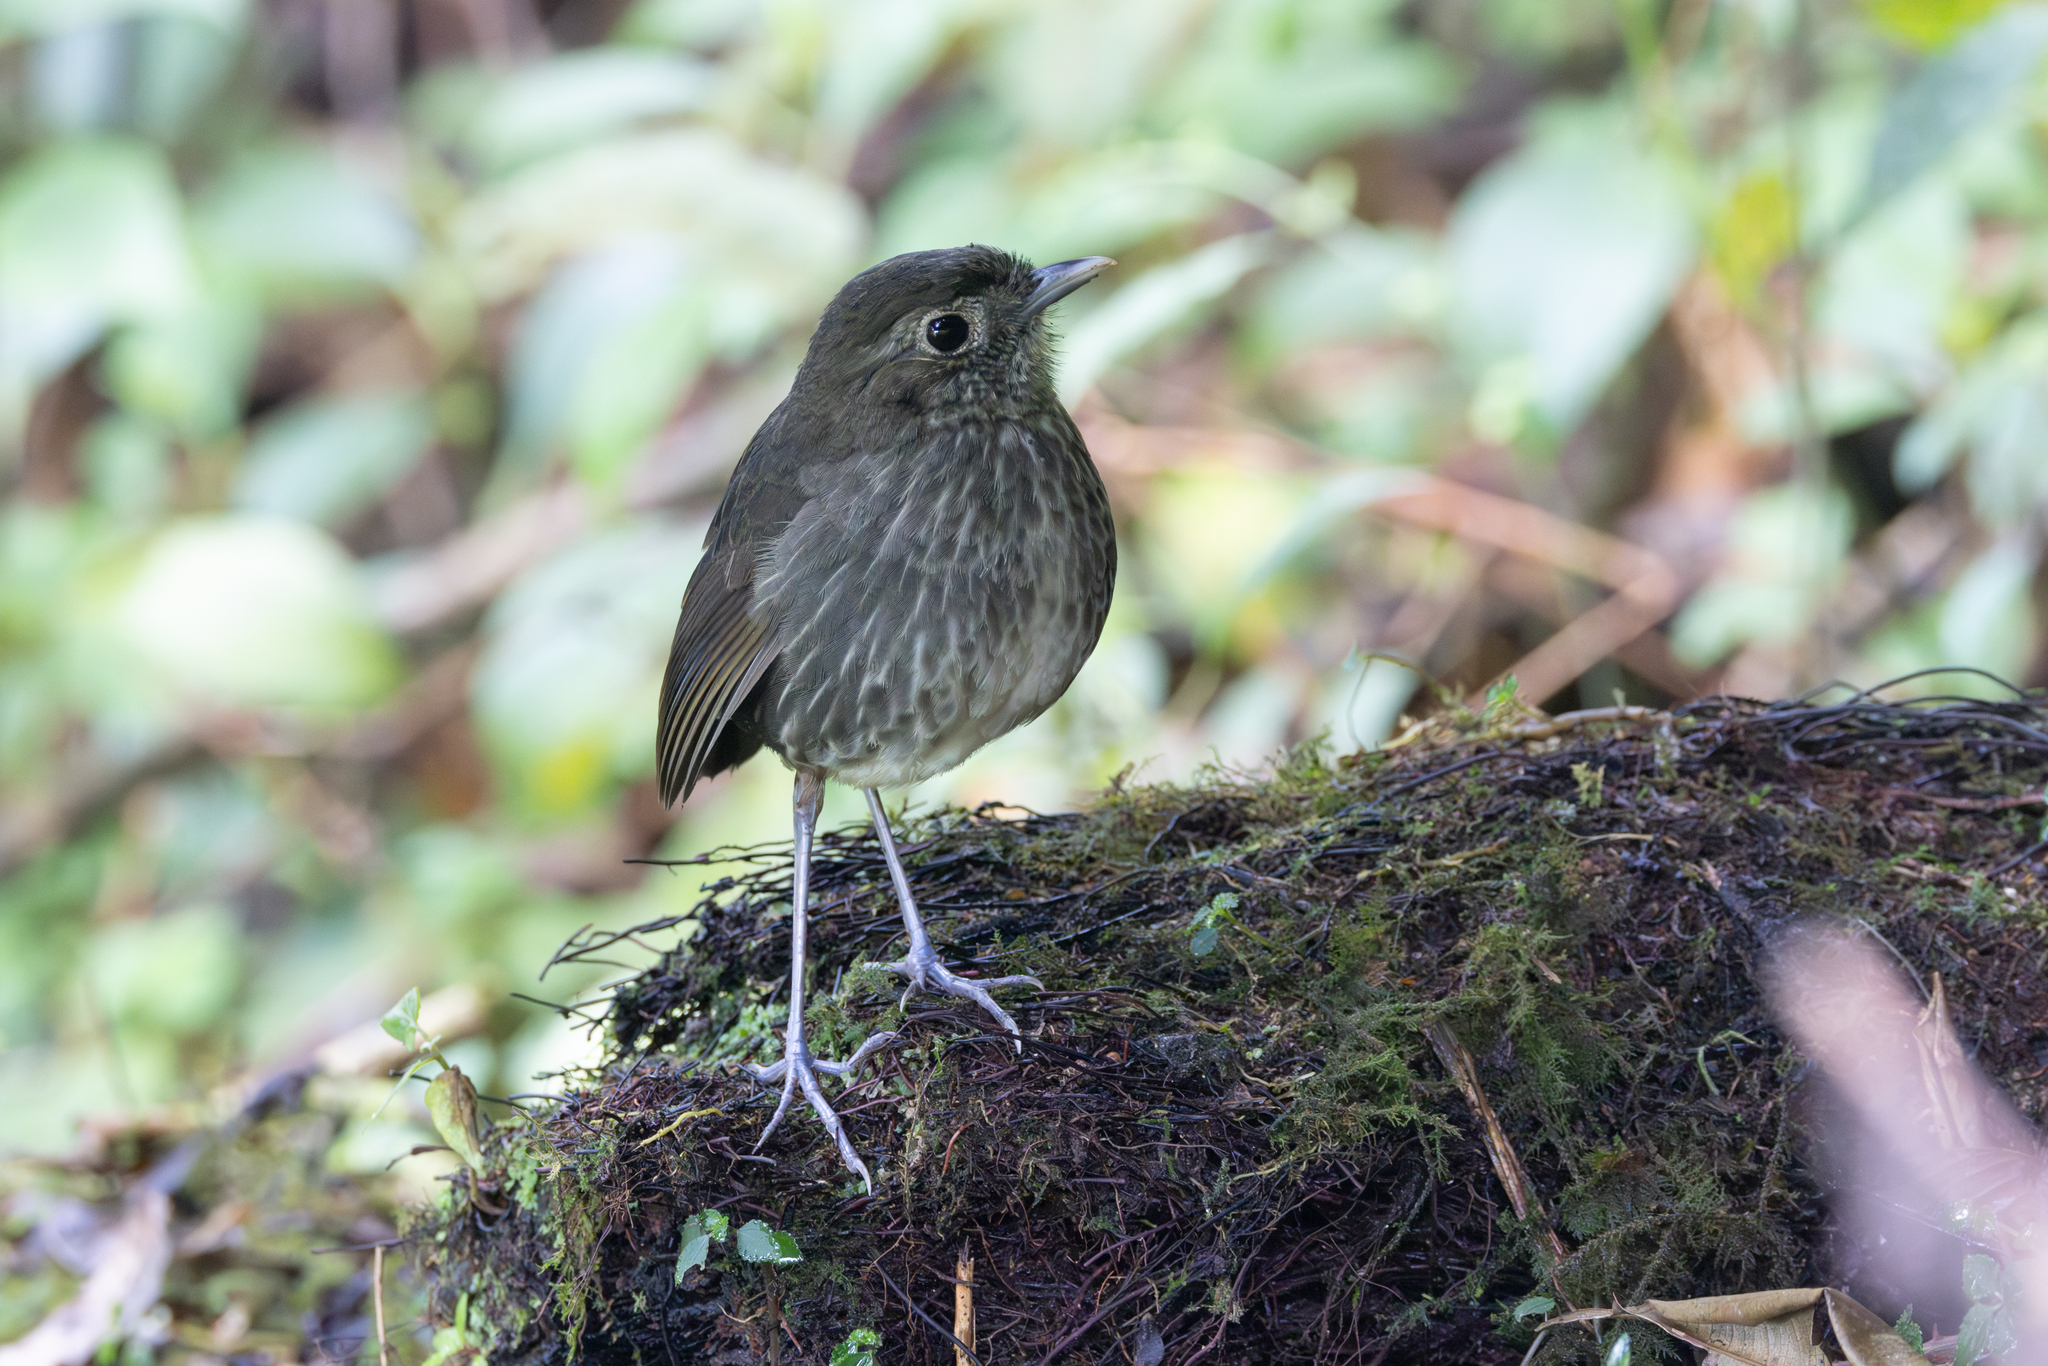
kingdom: Animalia
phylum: Chordata
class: Aves
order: Passeriformes
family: Grallariidae
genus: Grallaria
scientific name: Grallaria kaestneri
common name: Cundinamarca antpitta
